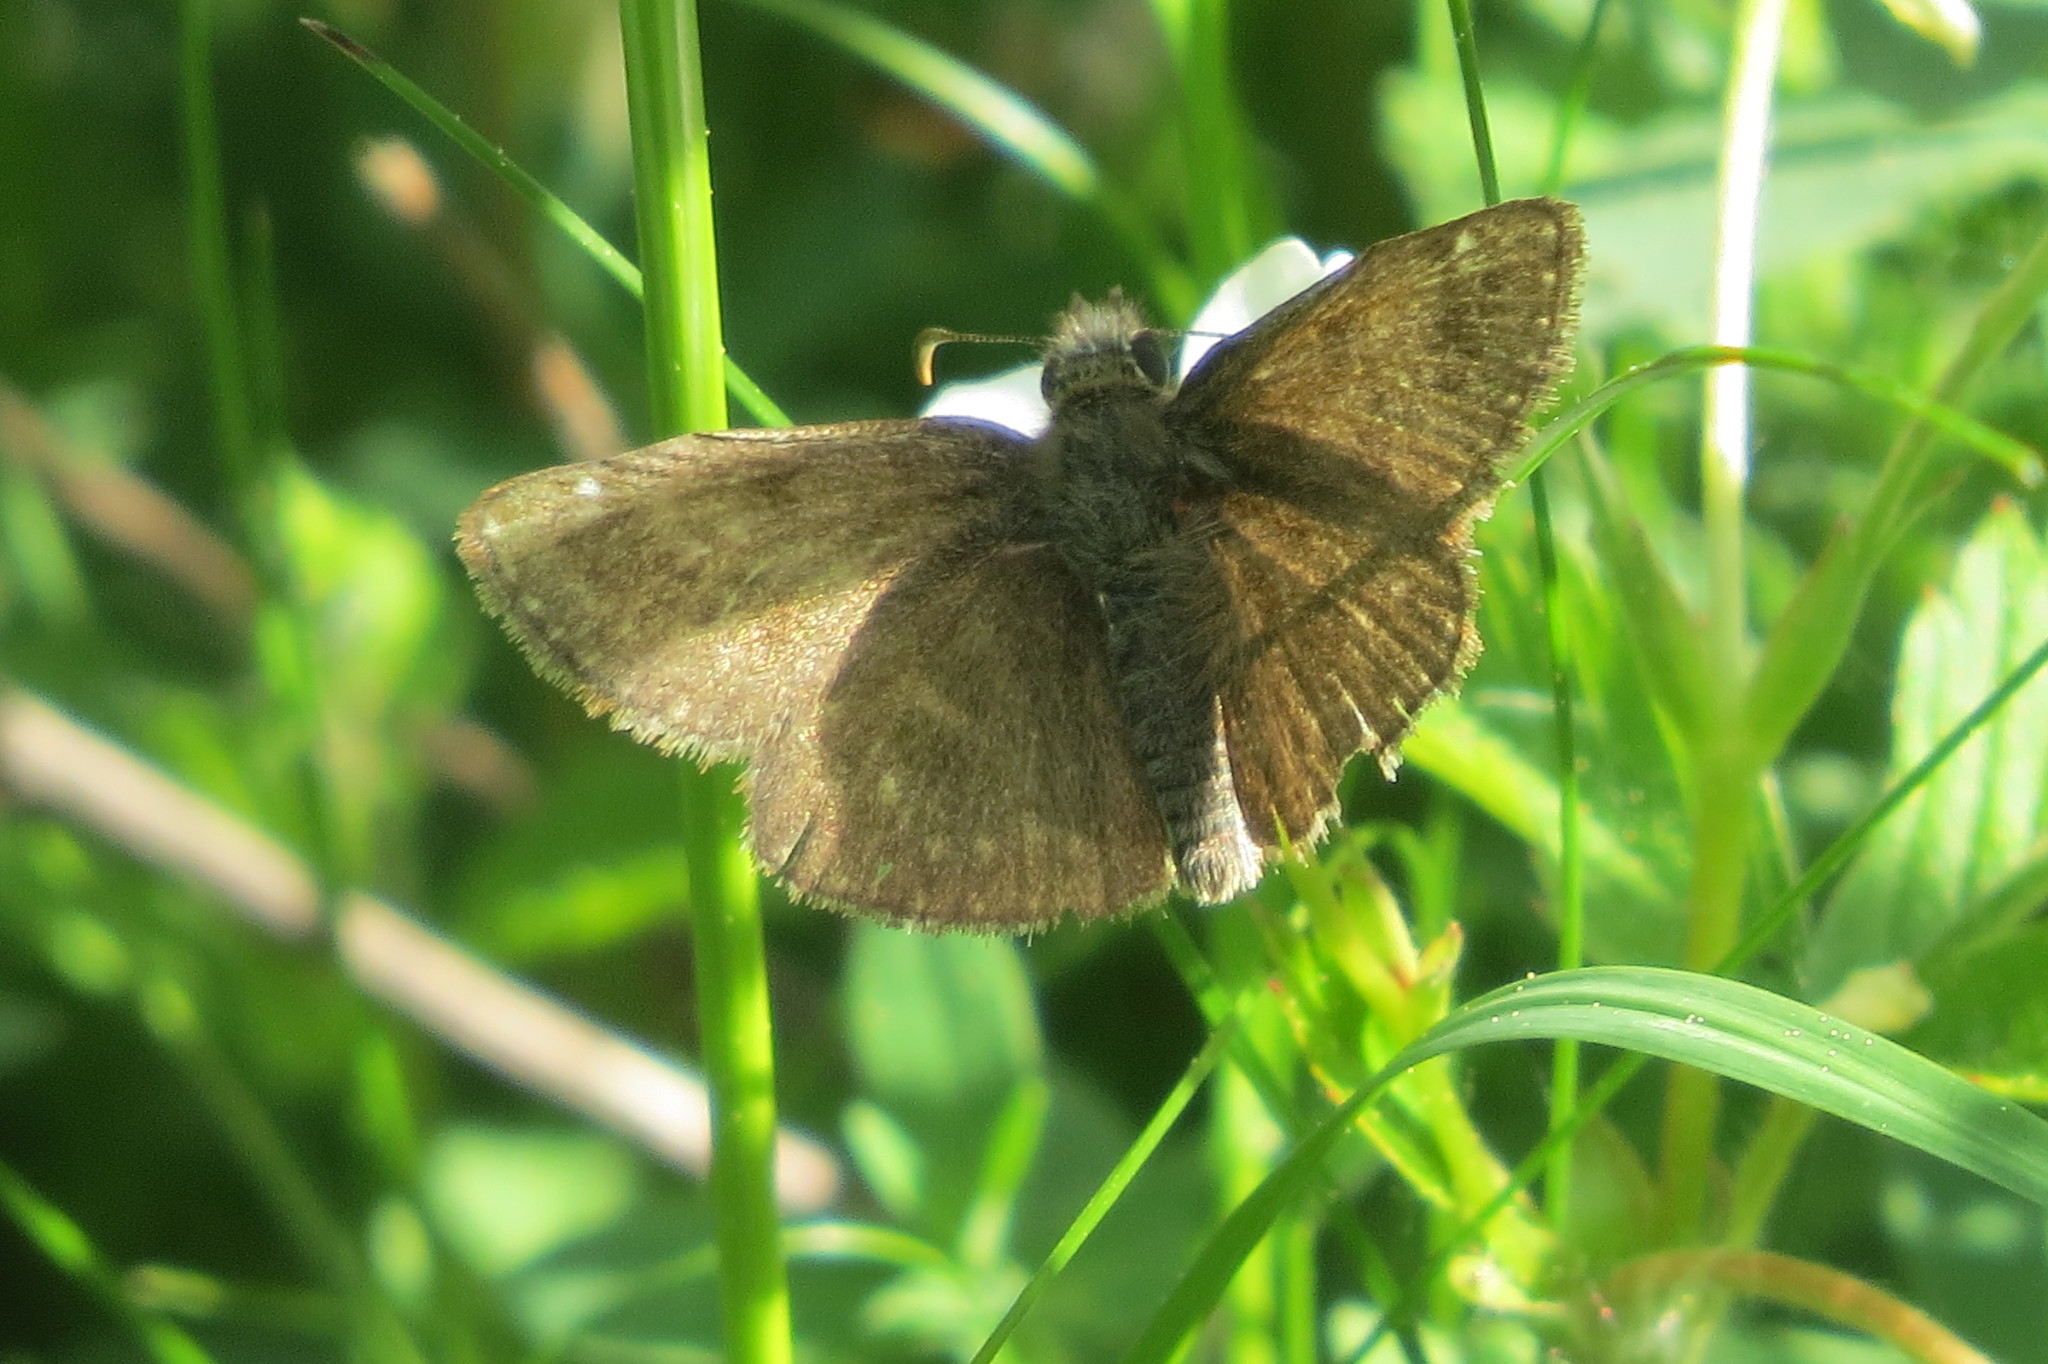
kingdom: Animalia
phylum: Arthropoda
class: Insecta
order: Lepidoptera
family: Hesperiidae
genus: Erynnis
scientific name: Erynnis tages
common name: Dingy skipper
